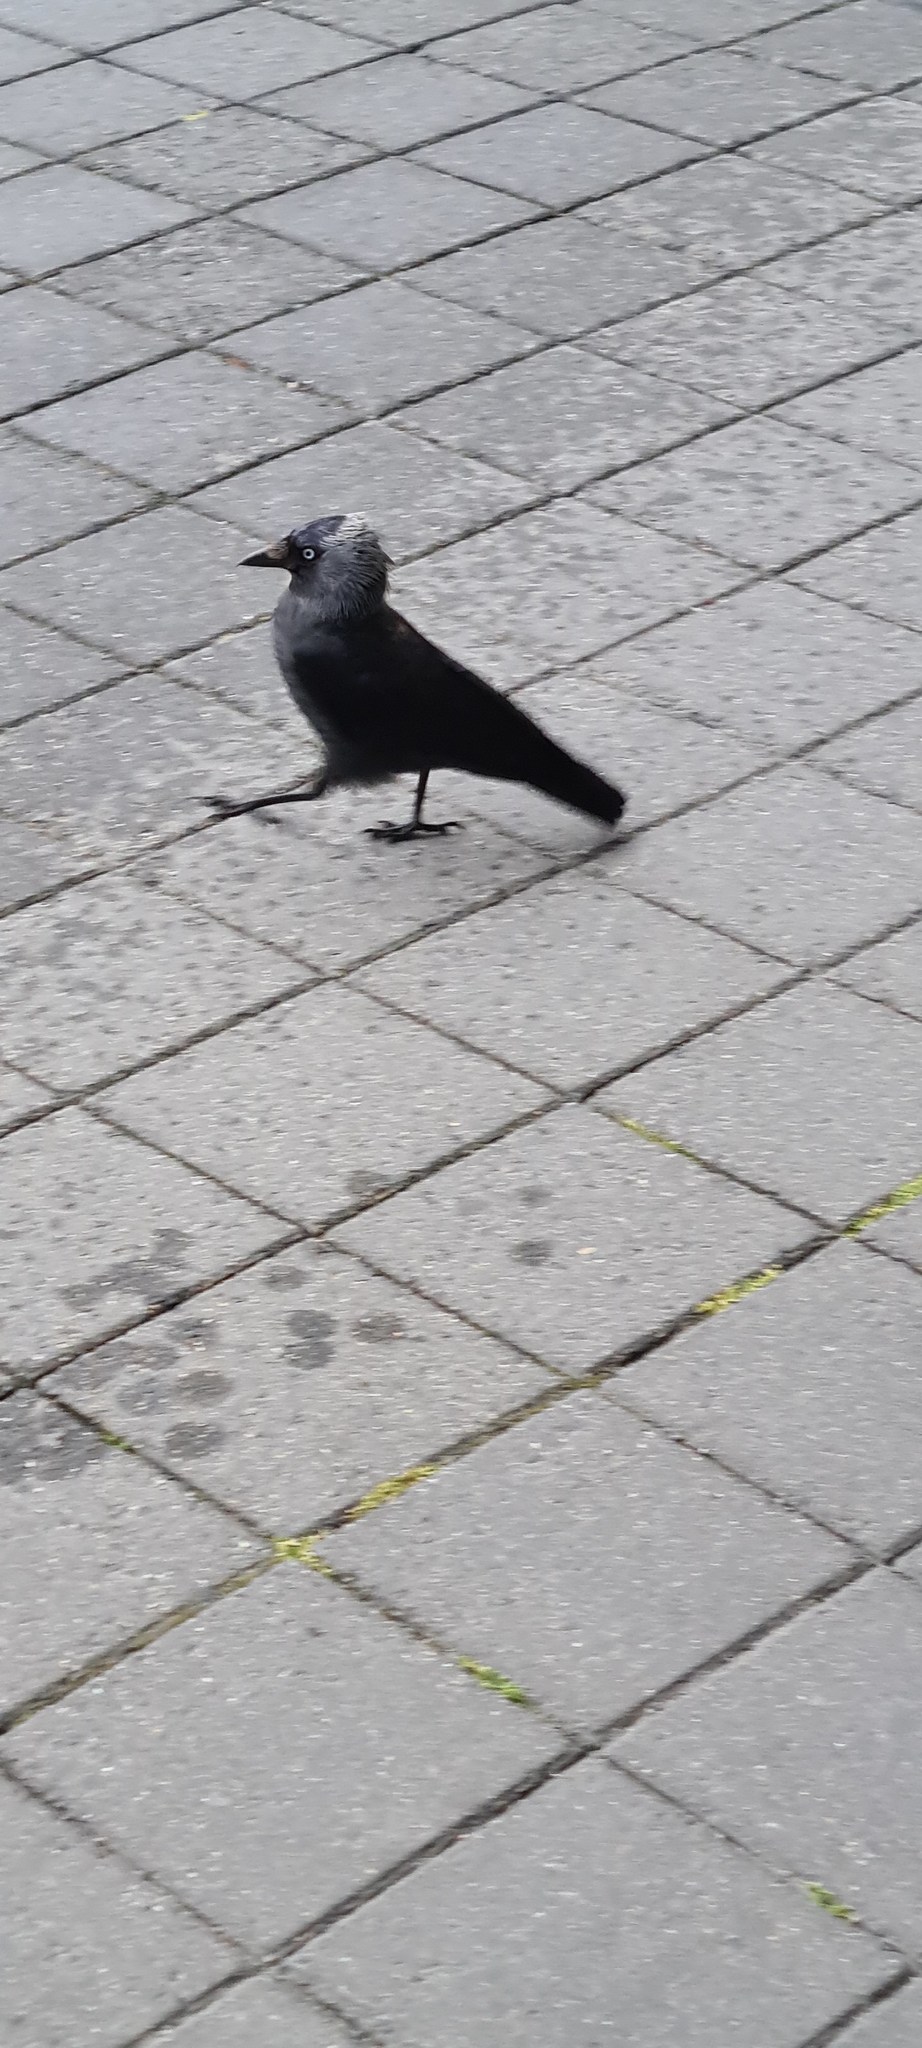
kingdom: Animalia
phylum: Chordata
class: Aves
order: Passeriformes
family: Corvidae
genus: Coloeus
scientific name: Coloeus monedula
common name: Western jackdaw
